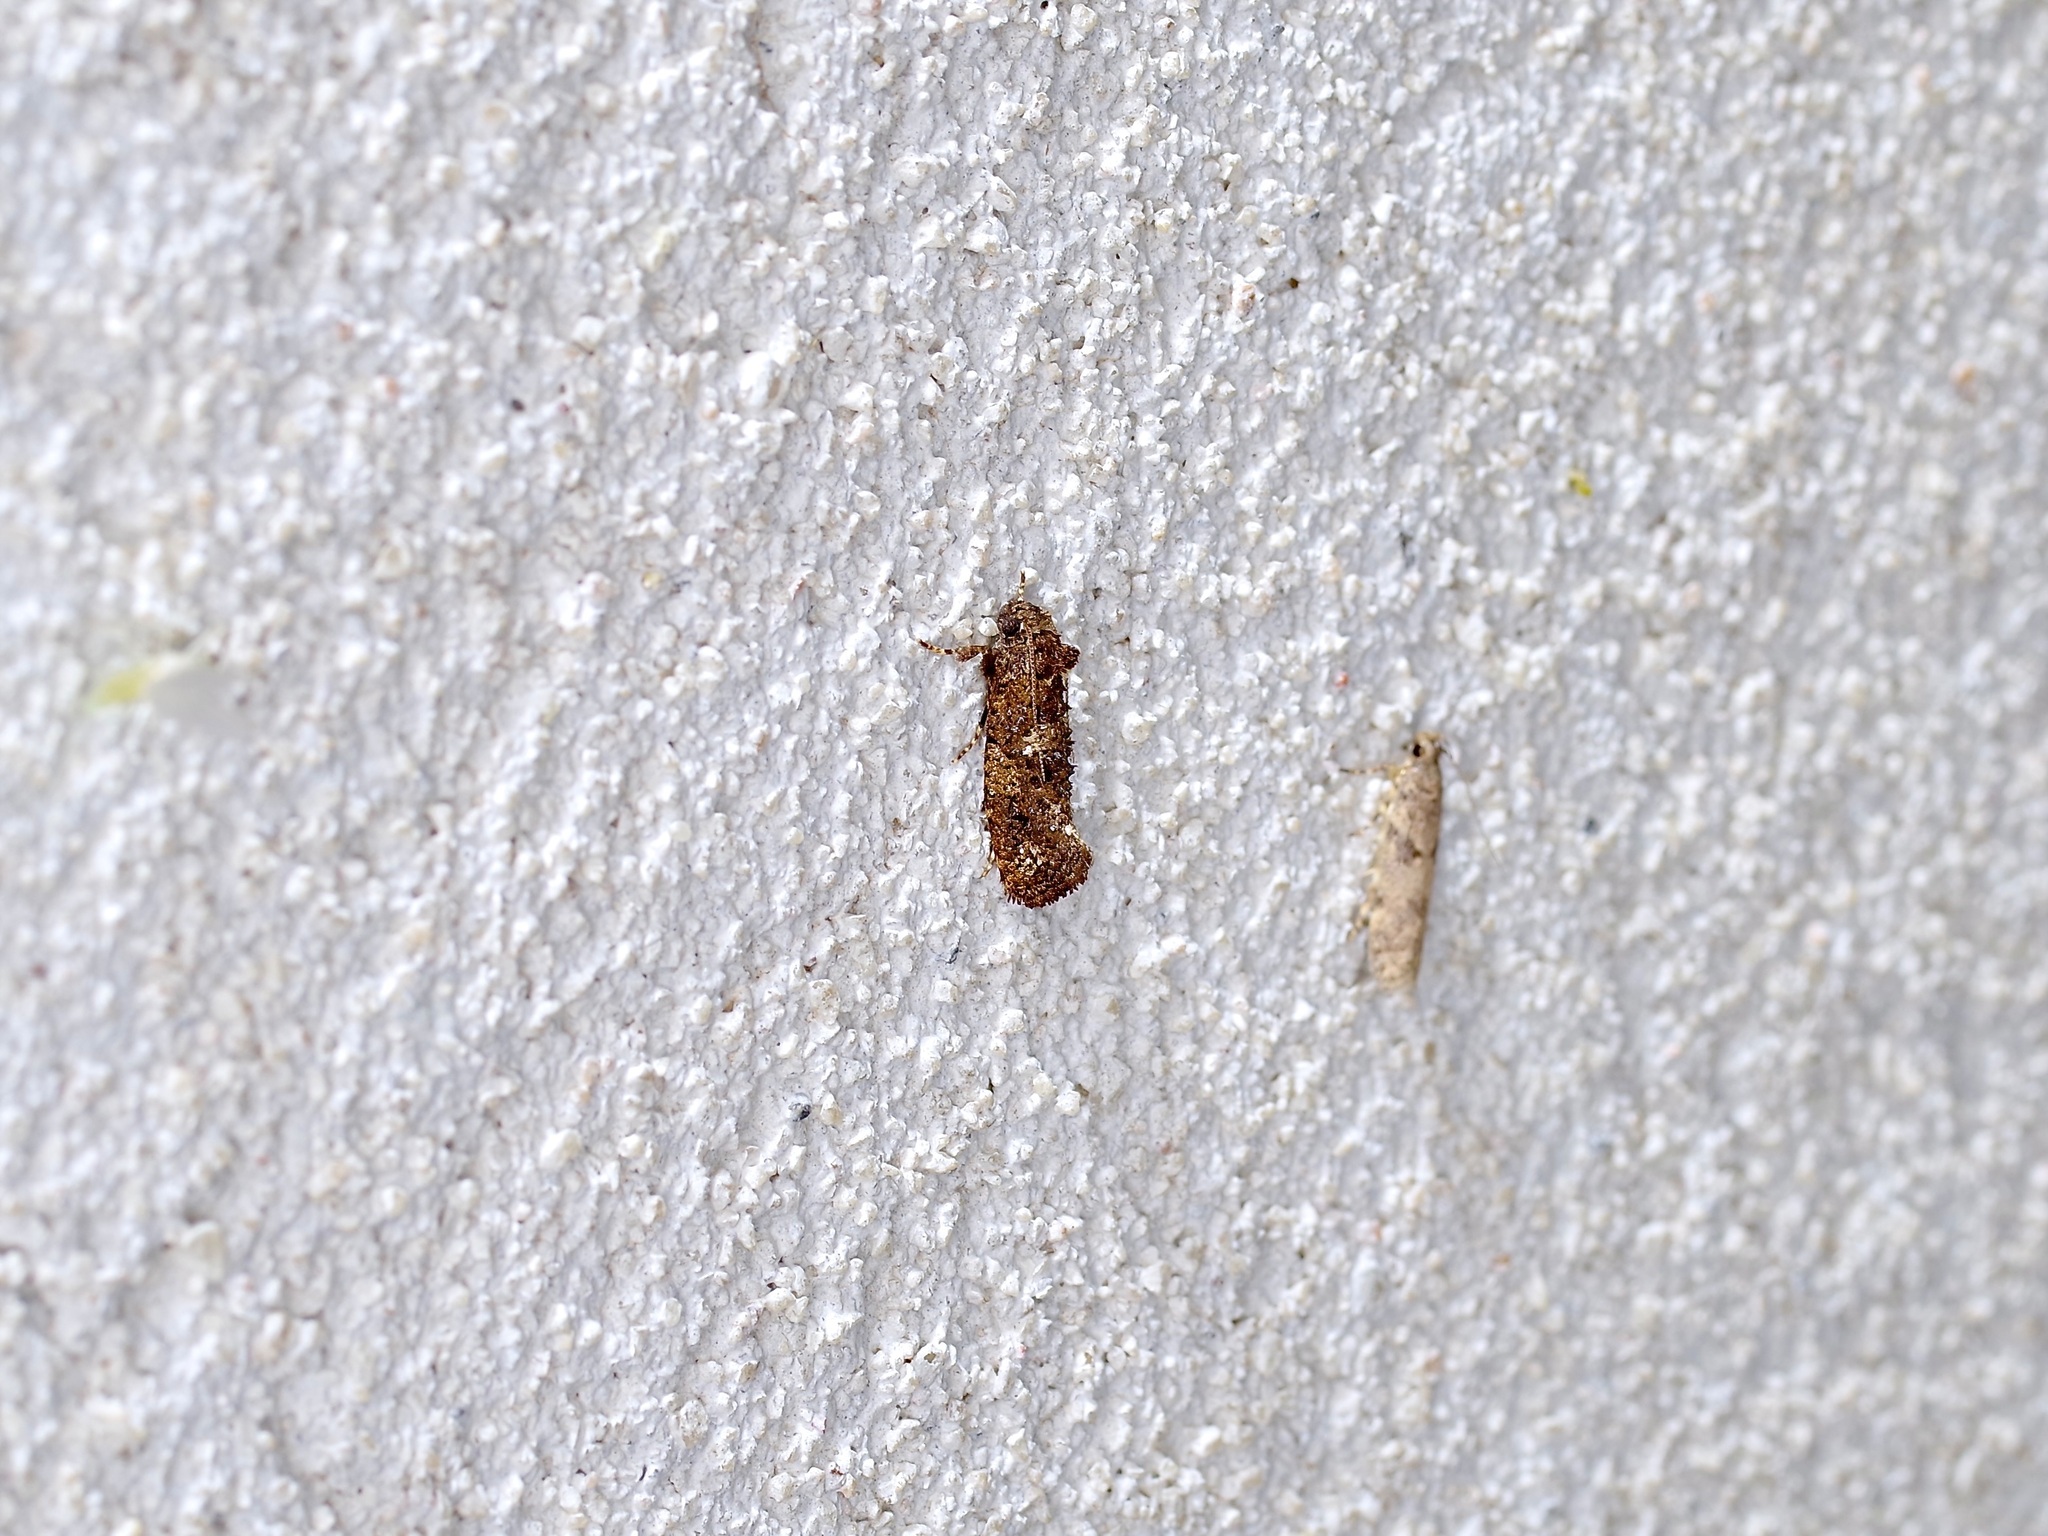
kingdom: Animalia
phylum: Arthropoda
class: Insecta
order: Lepidoptera
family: Tineidae
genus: Acrolophus
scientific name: Acrolophus cressoni
